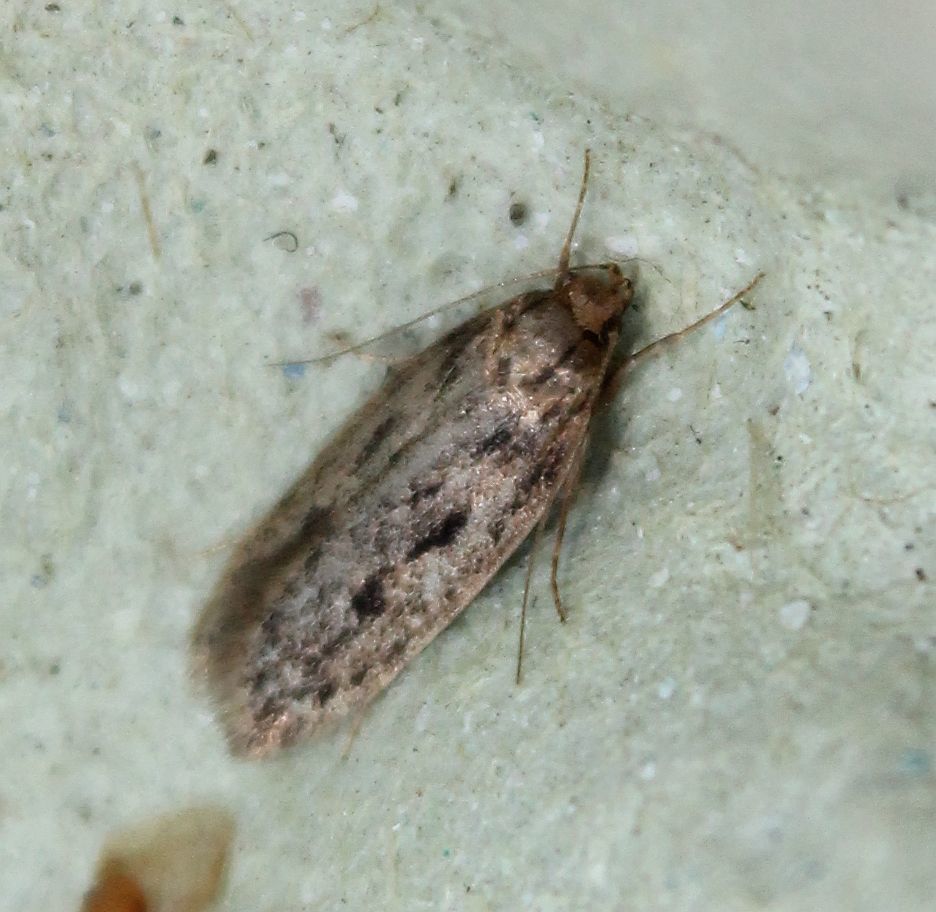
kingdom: Animalia
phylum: Arthropoda
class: Insecta
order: Lepidoptera
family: Oecophoridae
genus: Hofmannophila
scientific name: Hofmannophila pseudospretella
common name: Brown house moth
